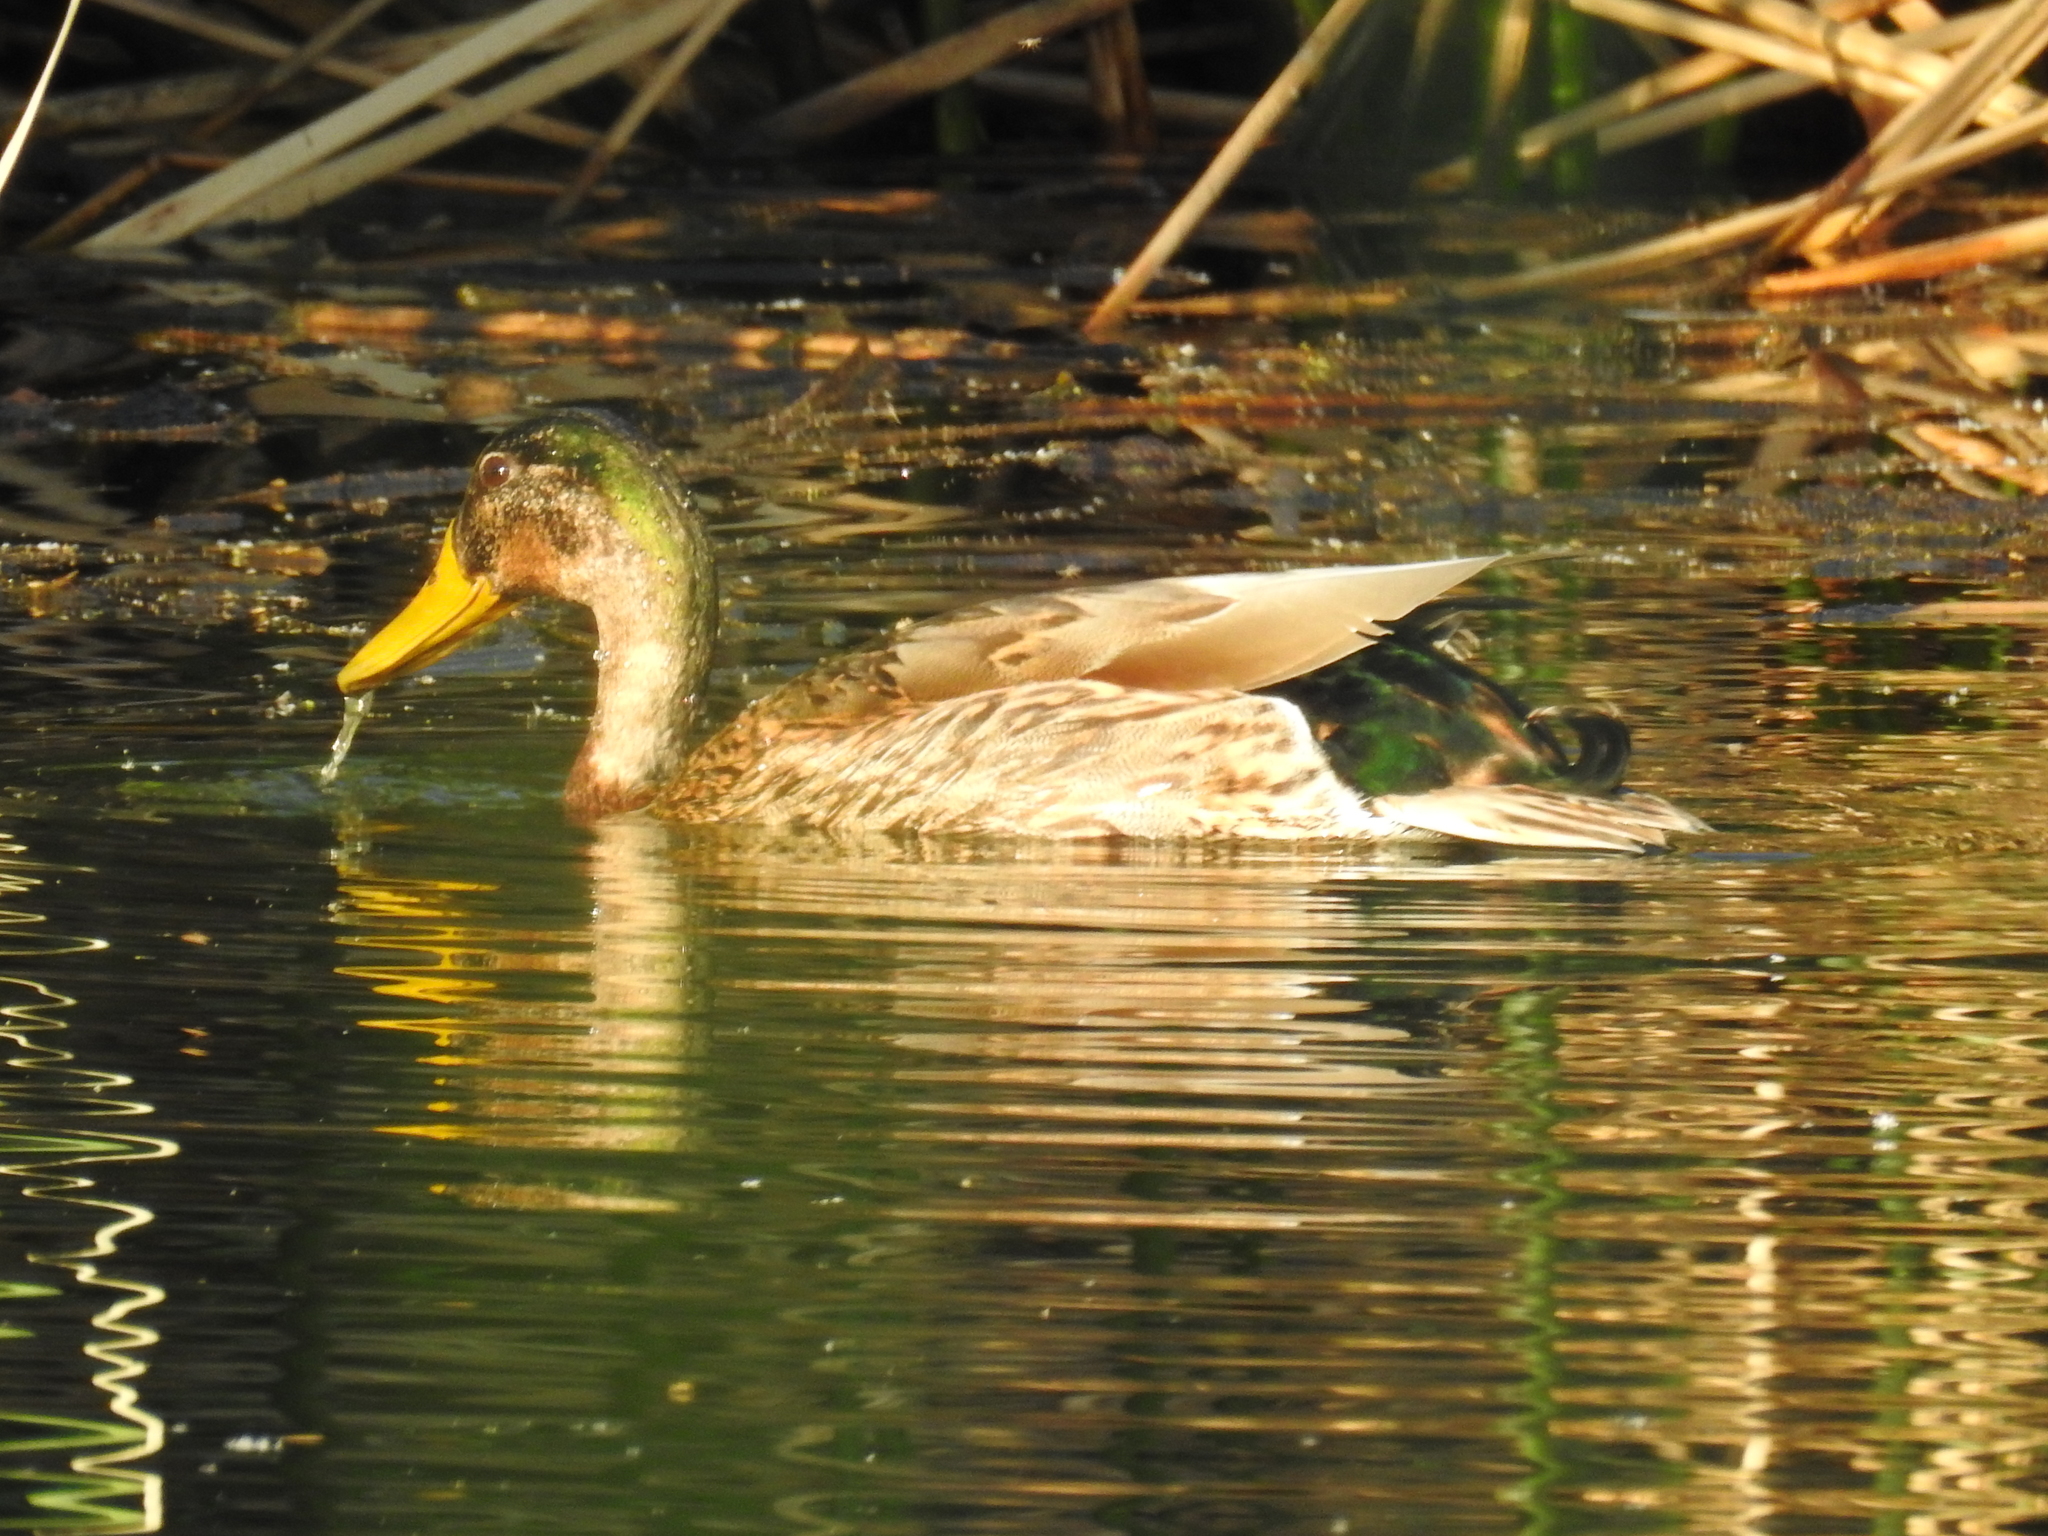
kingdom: Animalia
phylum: Chordata
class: Aves
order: Anseriformes
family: Anatidae
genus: Anas
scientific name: Anas
